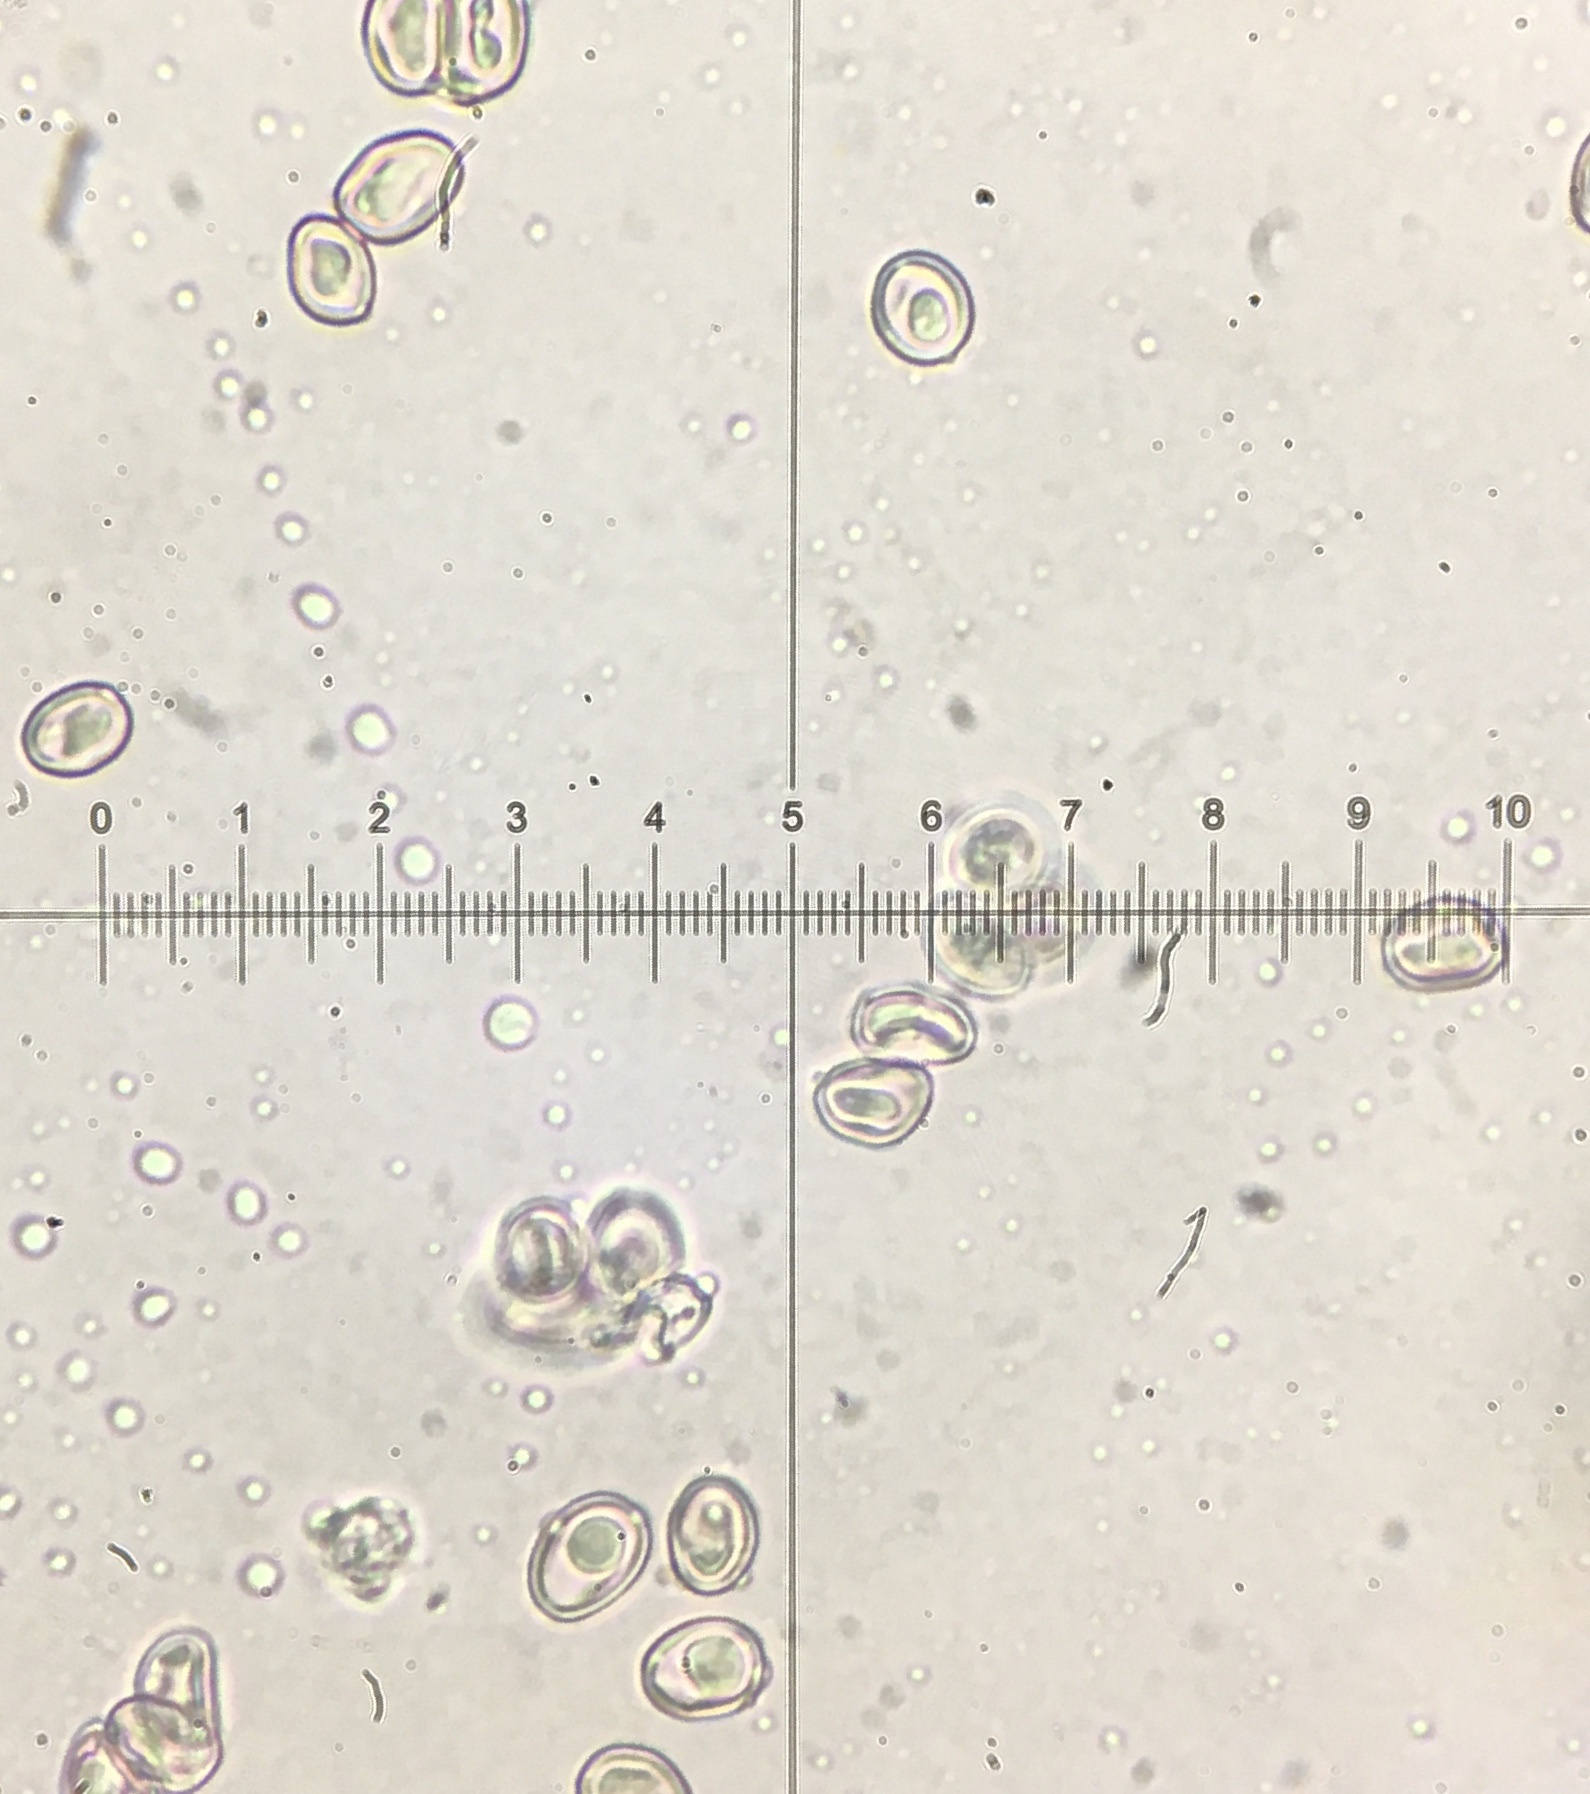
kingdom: Fungi
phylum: Basidiomycota
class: Agaricomycetes
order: Agaricales
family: Agaricaceae
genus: Leucoagaricus
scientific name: Leucoagaricus americanus
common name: Reddening lepiota
